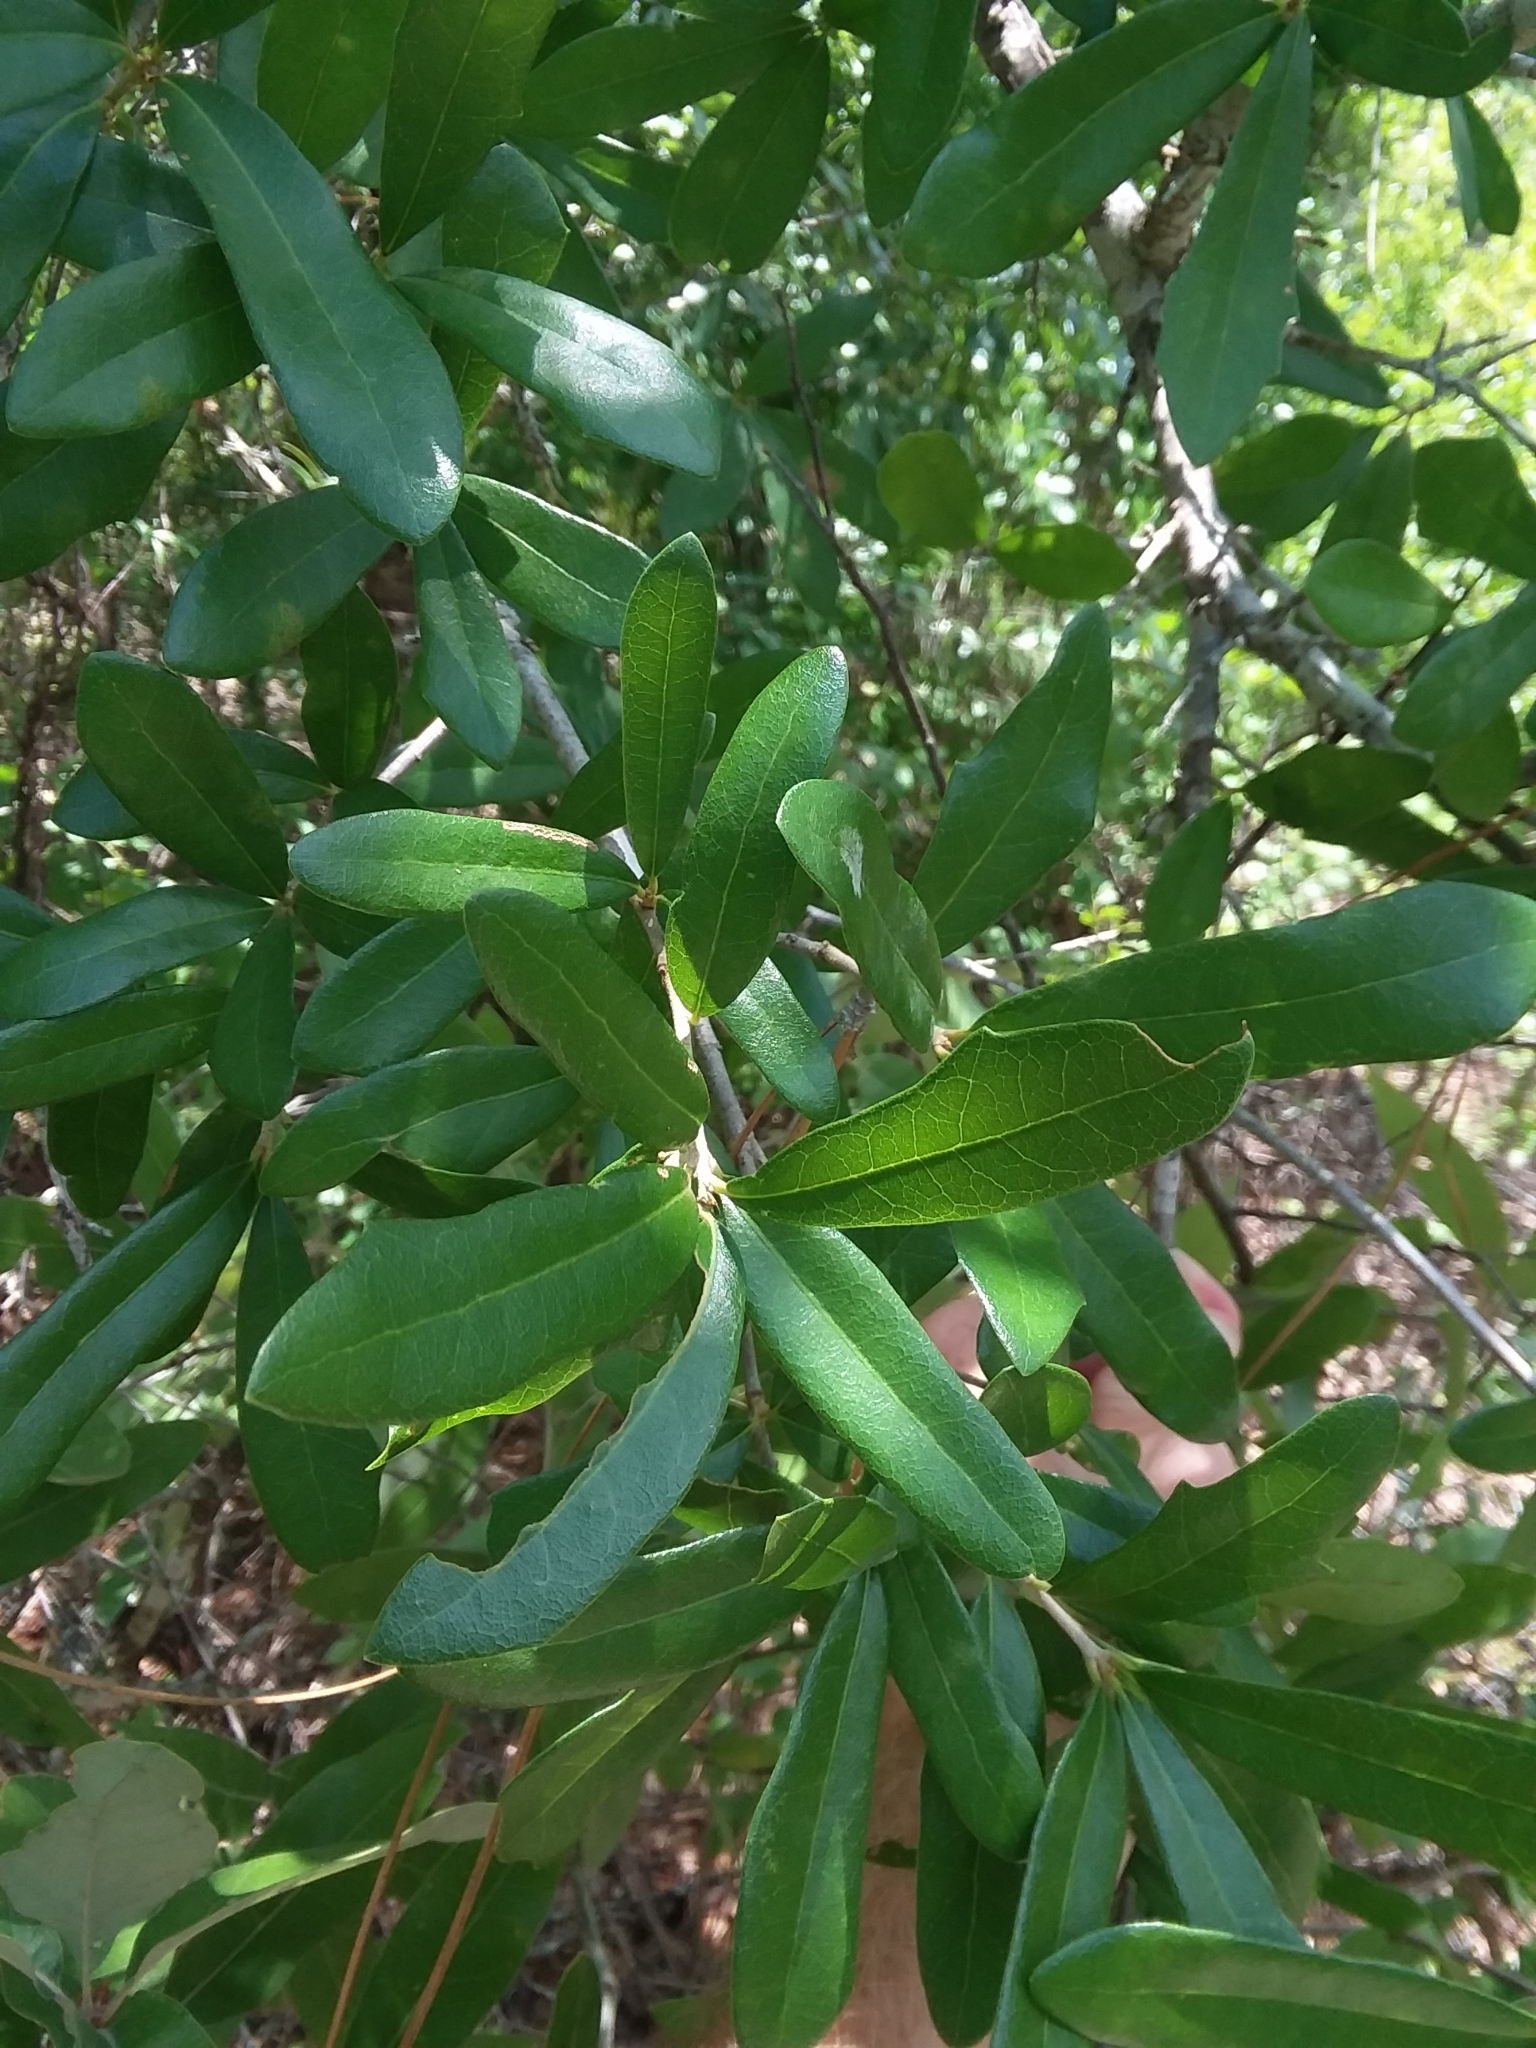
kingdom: Plantae
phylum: Tracheophyta
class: Magnoliopsida
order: Fagales
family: Fagaceae
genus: Quercus
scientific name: Quercus virginiana
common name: Southern live oak
